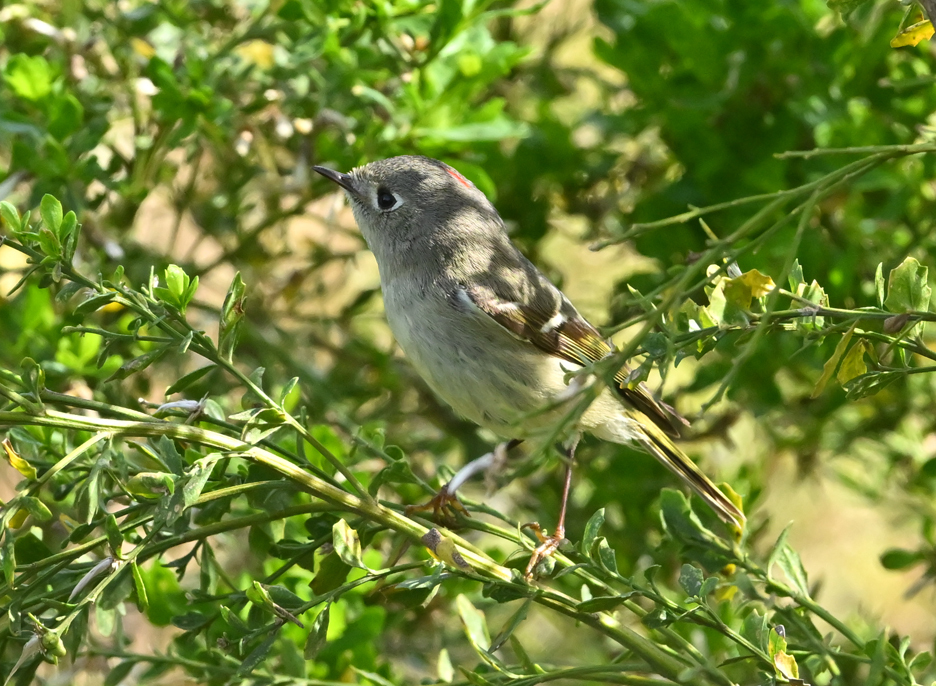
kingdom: Animalia
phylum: Chordata
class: Aves
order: Passeriformes
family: Regulidae
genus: Regulus
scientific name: Regulus calendula
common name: Ruby-crowned kinglet
